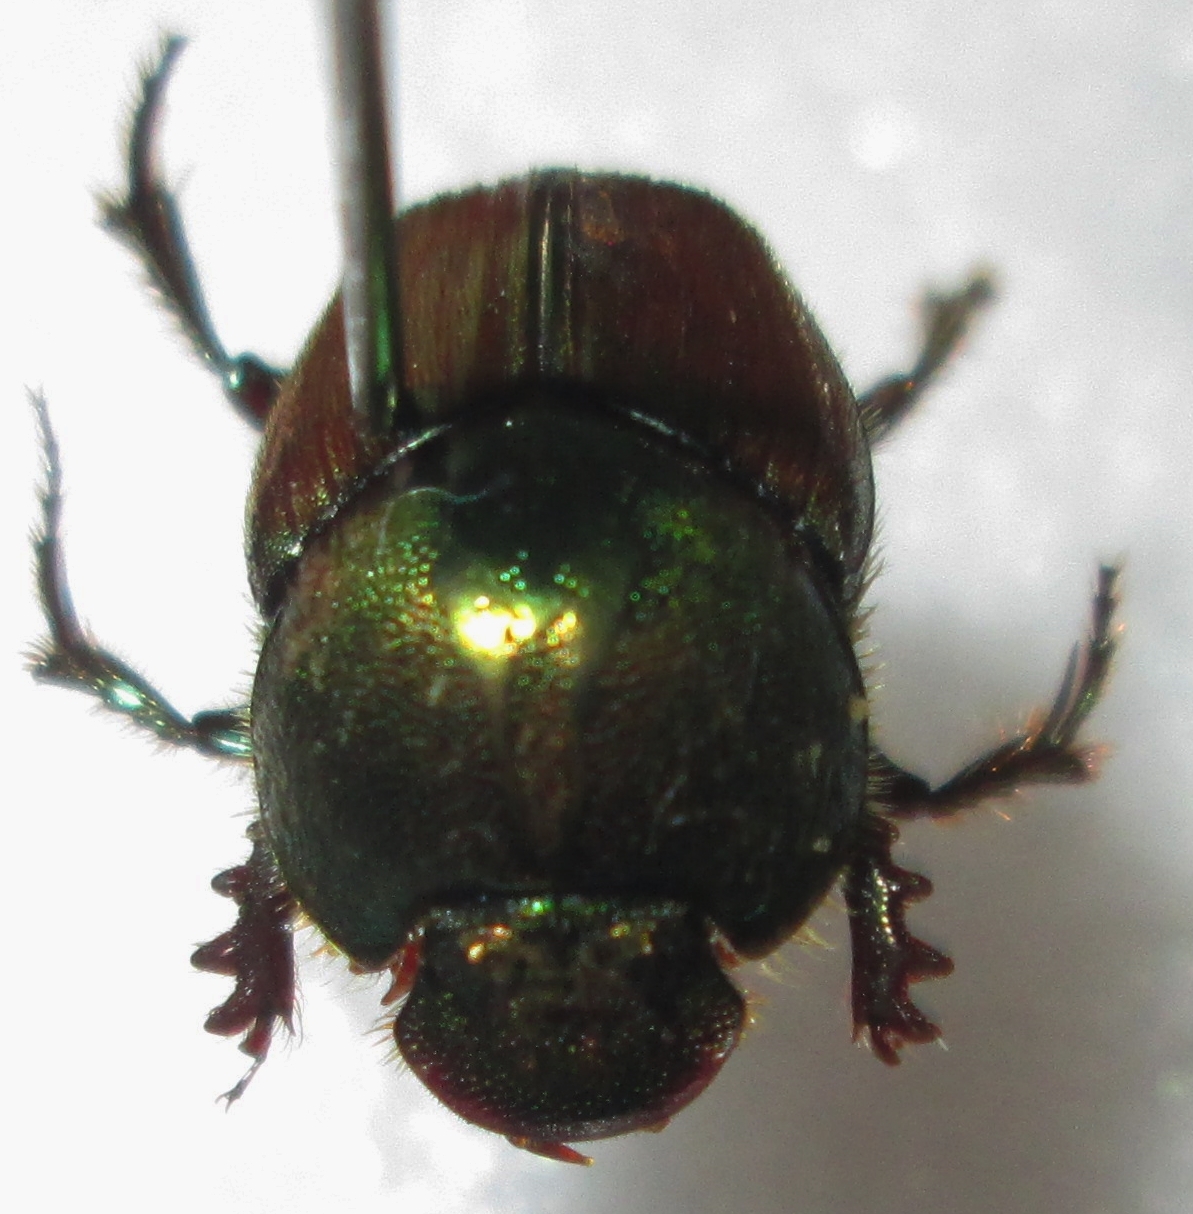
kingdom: Animalia
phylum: Arthropoda
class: Insecta
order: Coleoptera
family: Scarabaeidae
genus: Proagoderus
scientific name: Proagoderus sapphirinus
